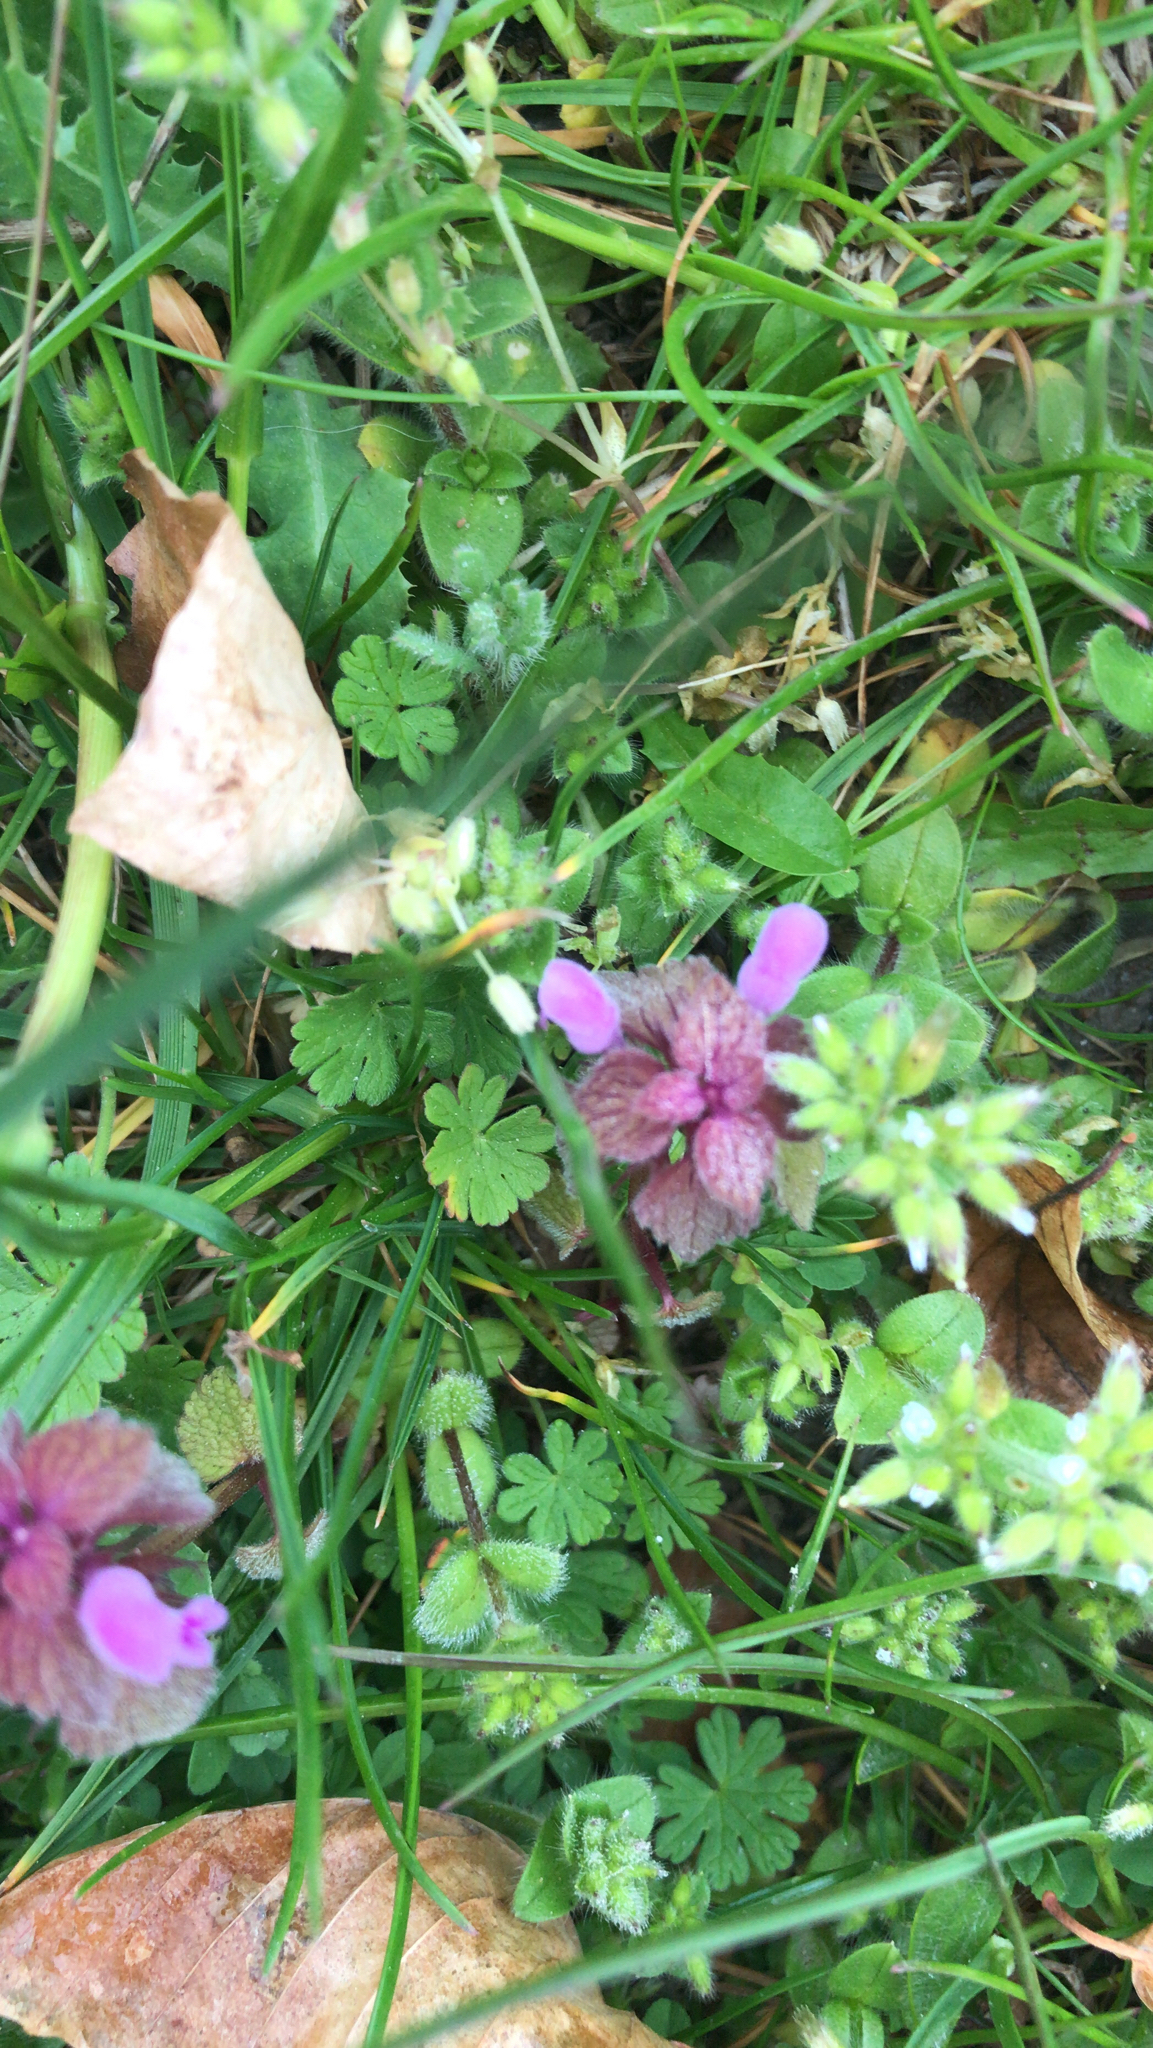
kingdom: Plantae
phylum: Tracheophyta
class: Magnoliopsida
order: Lamiales
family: Lamiaceae
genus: Lamium
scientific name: Lamium purpureum
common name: Red dead-nettle
